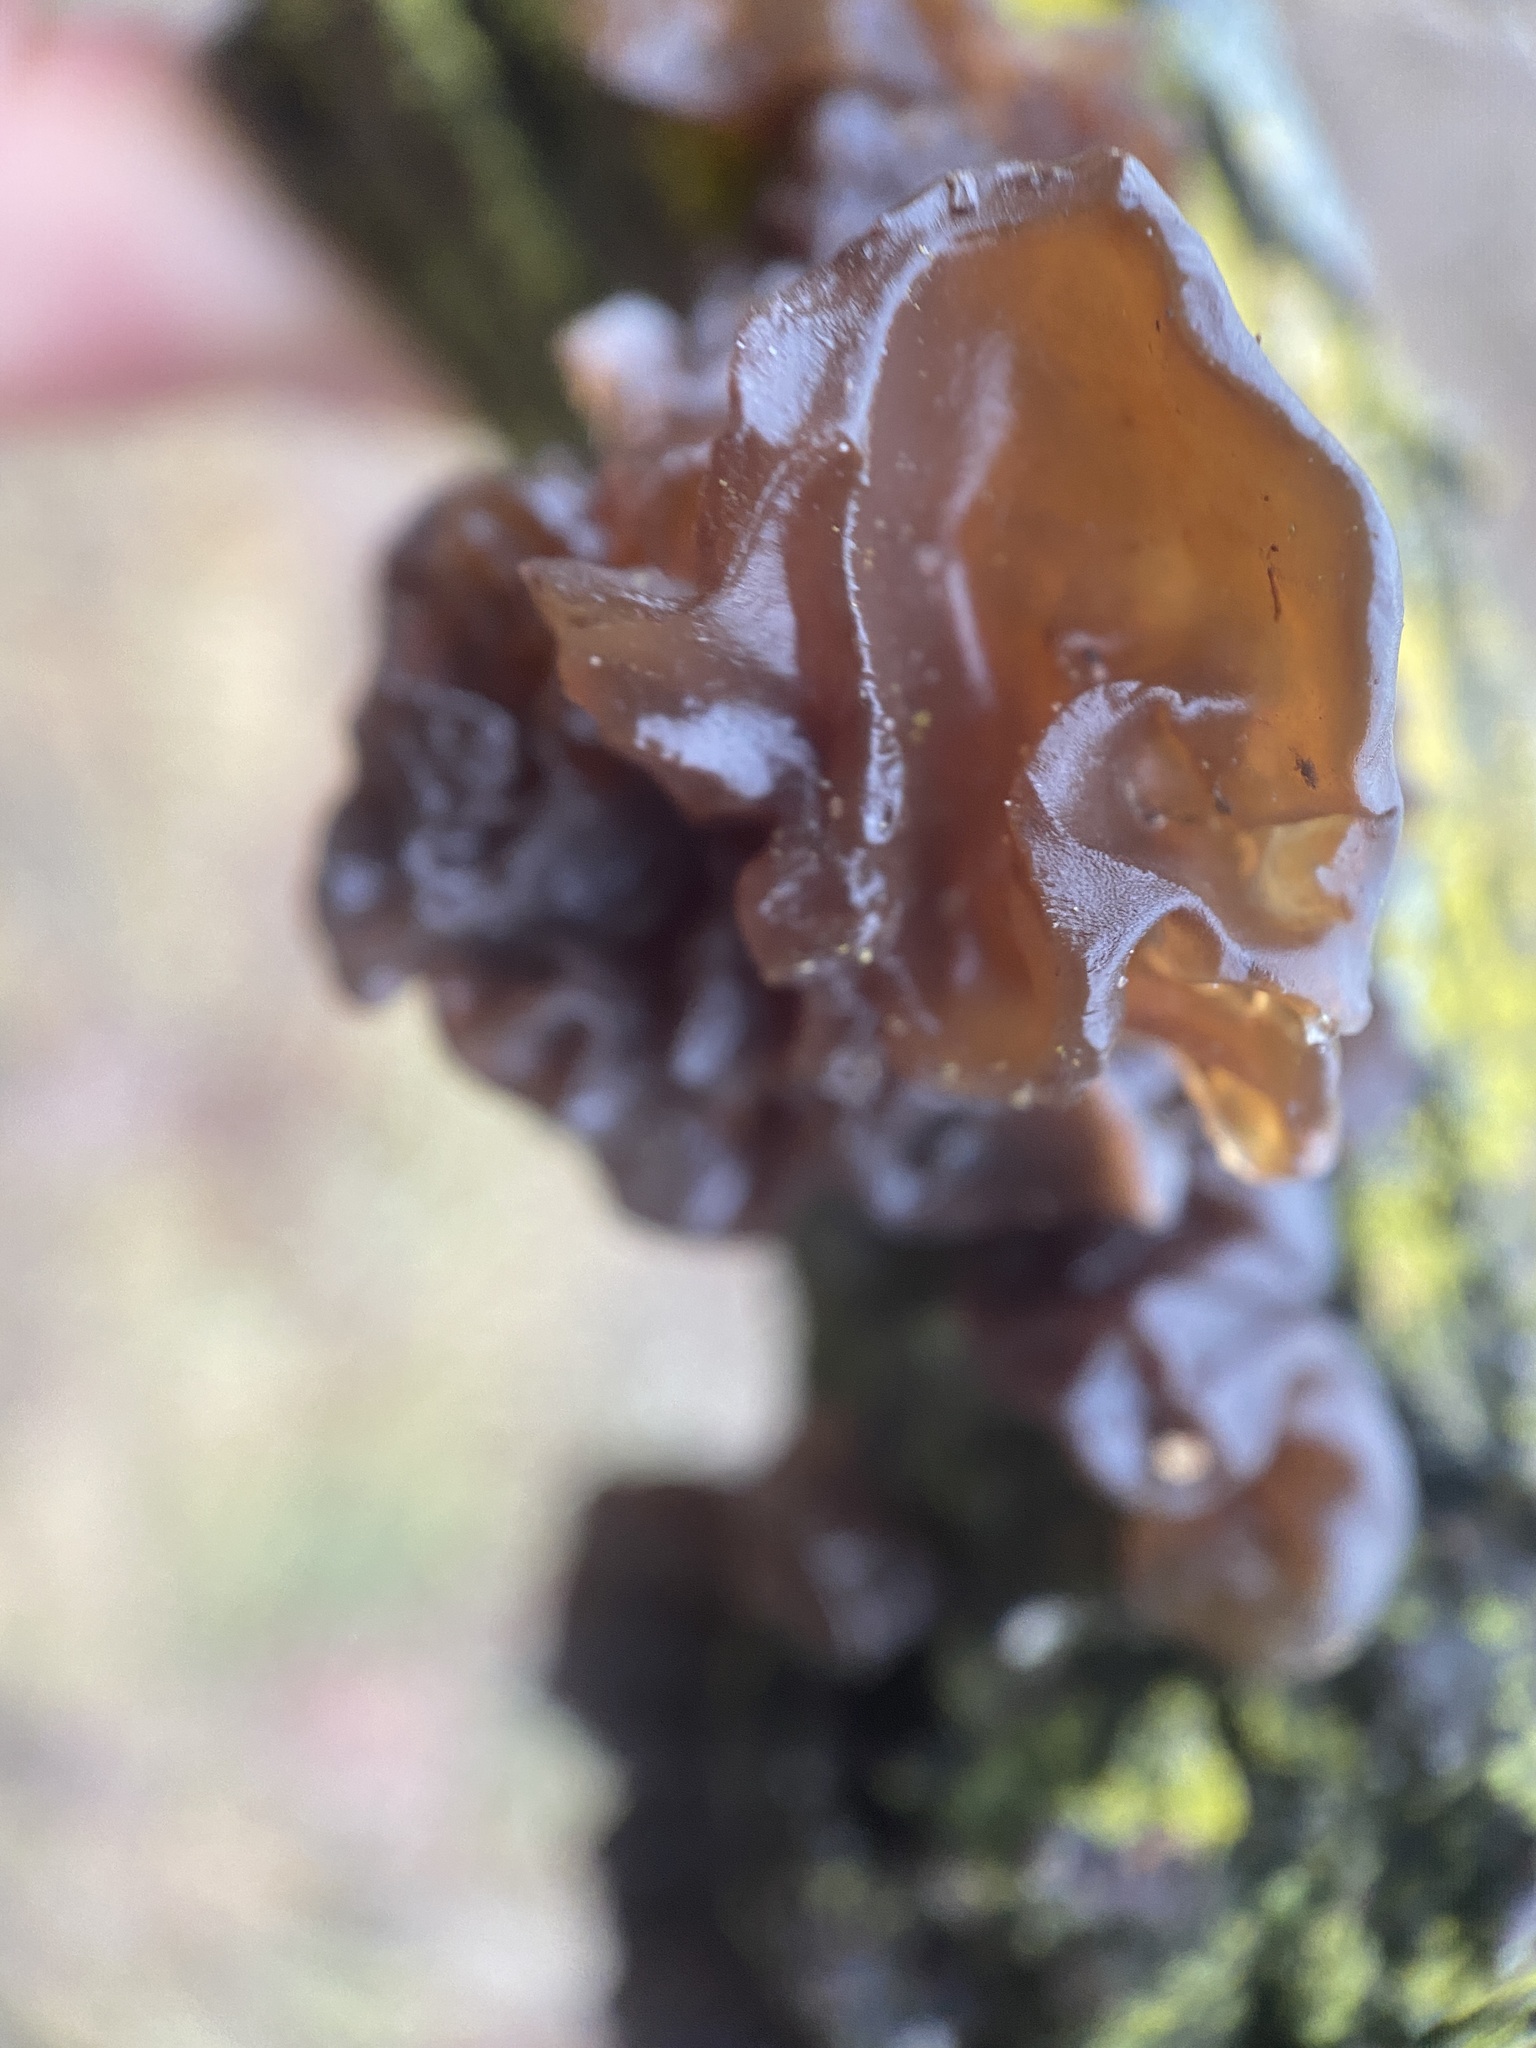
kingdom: Fungi
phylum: Basidiomycota
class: Agaricomycetes
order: Auriculariales
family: Auriculariaceae
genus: Exidia
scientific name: Exidia
